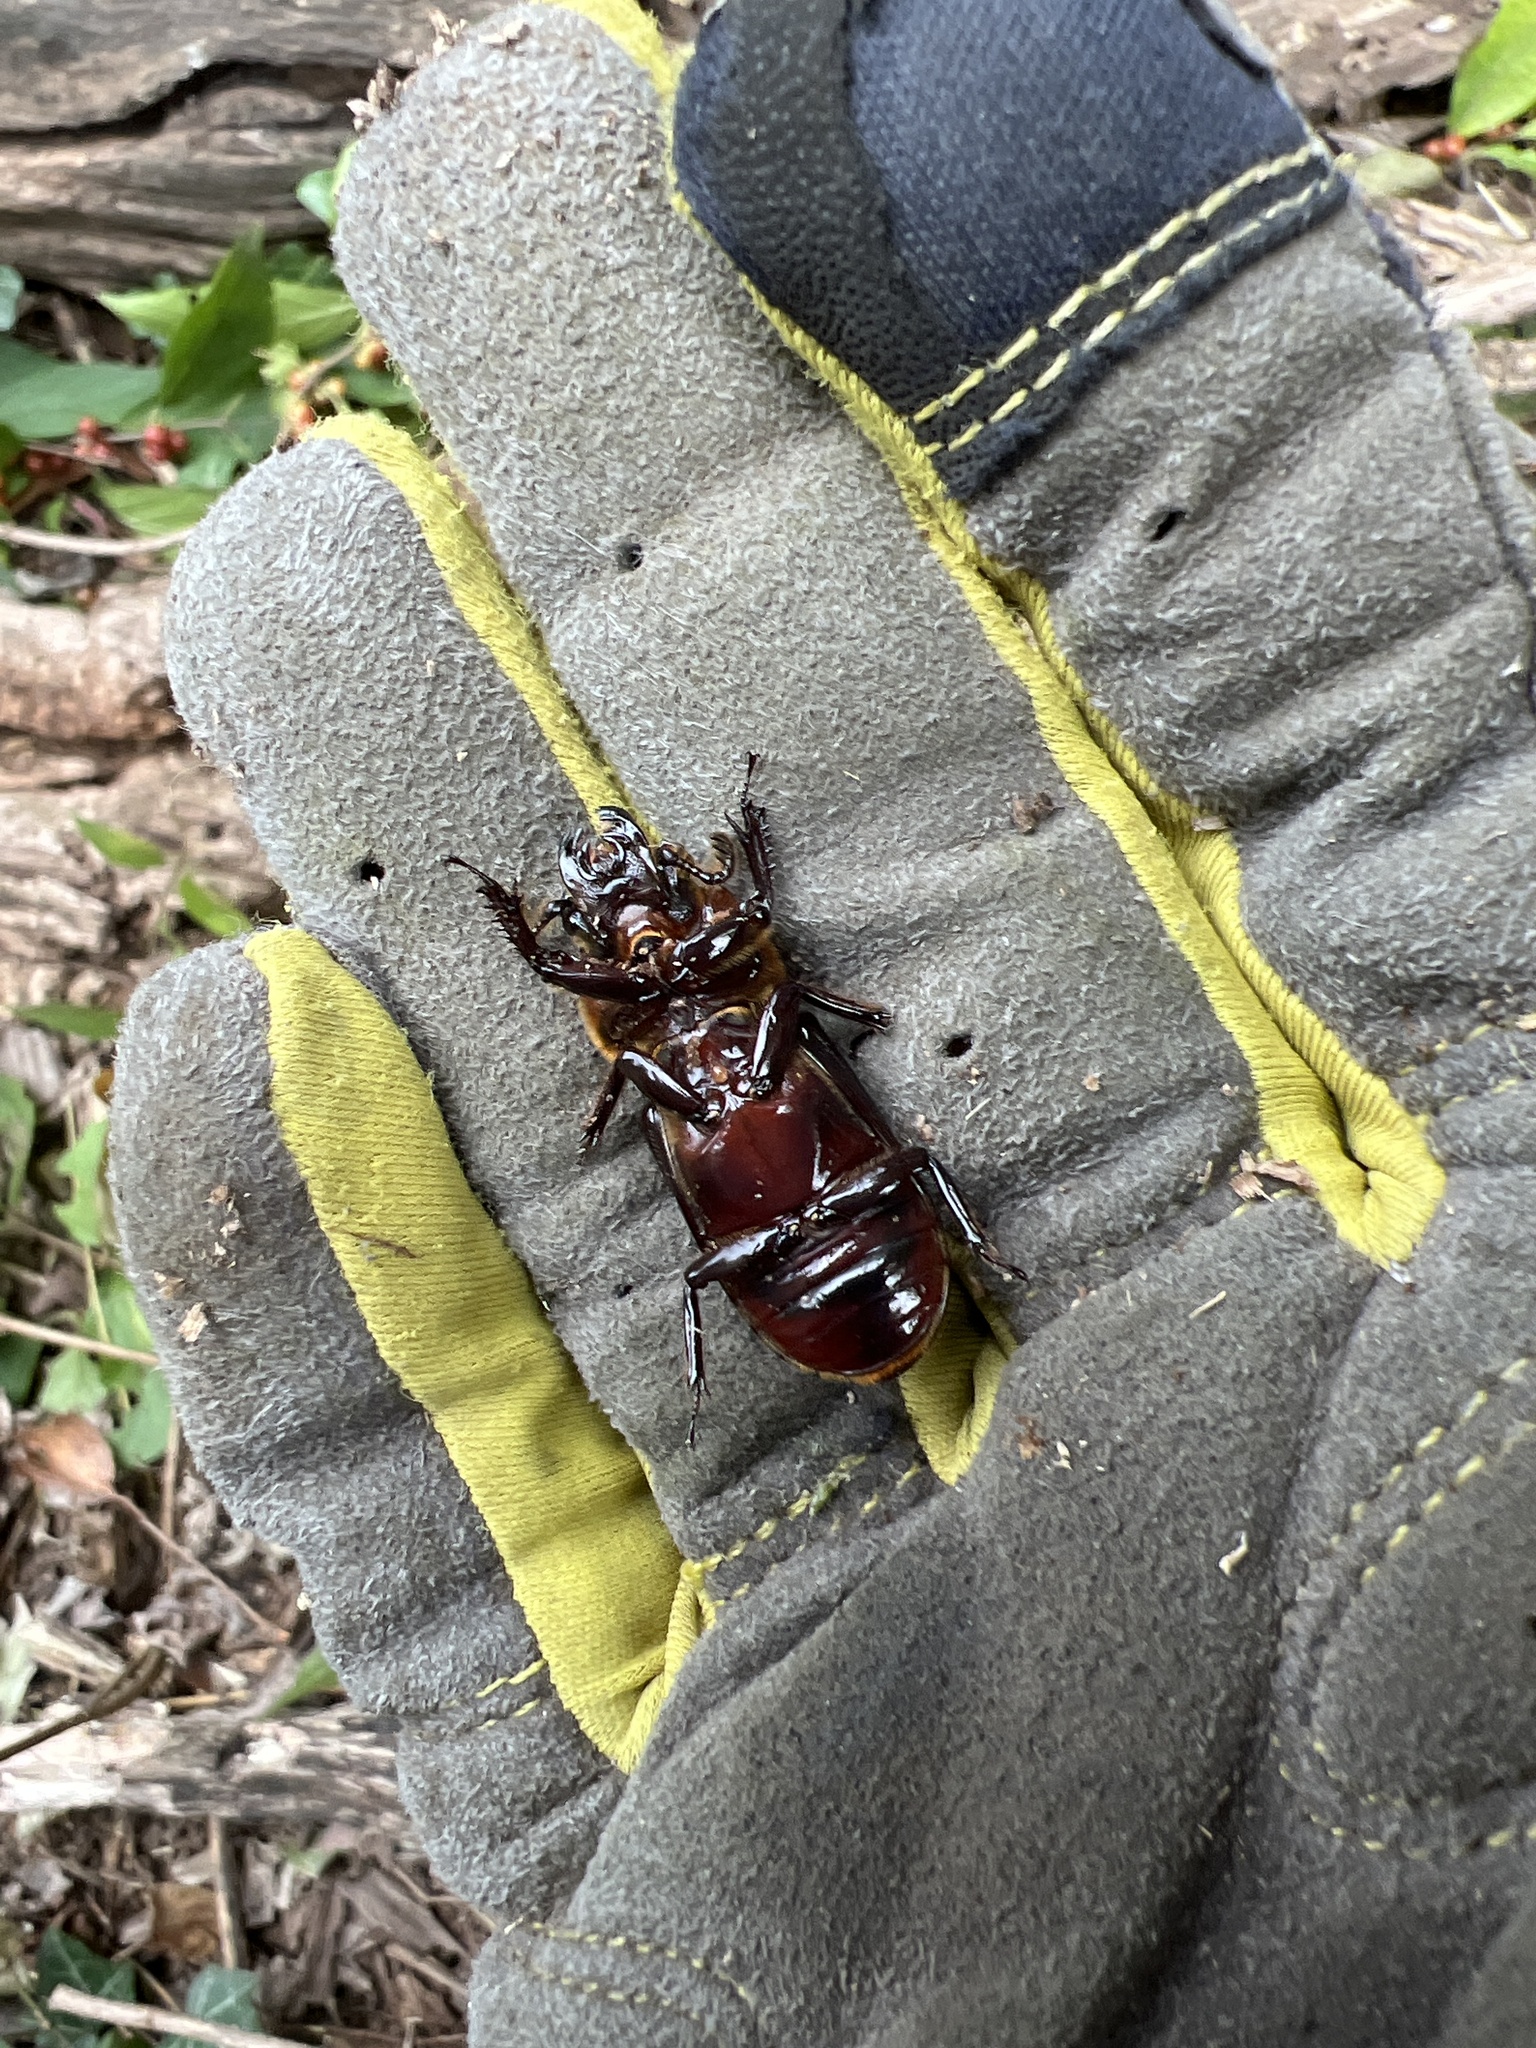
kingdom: Animalia
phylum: Arthropoda
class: Insecta
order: Coleoptera
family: Passalidae
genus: Odontotaenius
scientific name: Odontotaenius disjunctus
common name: Patent leather beetle
